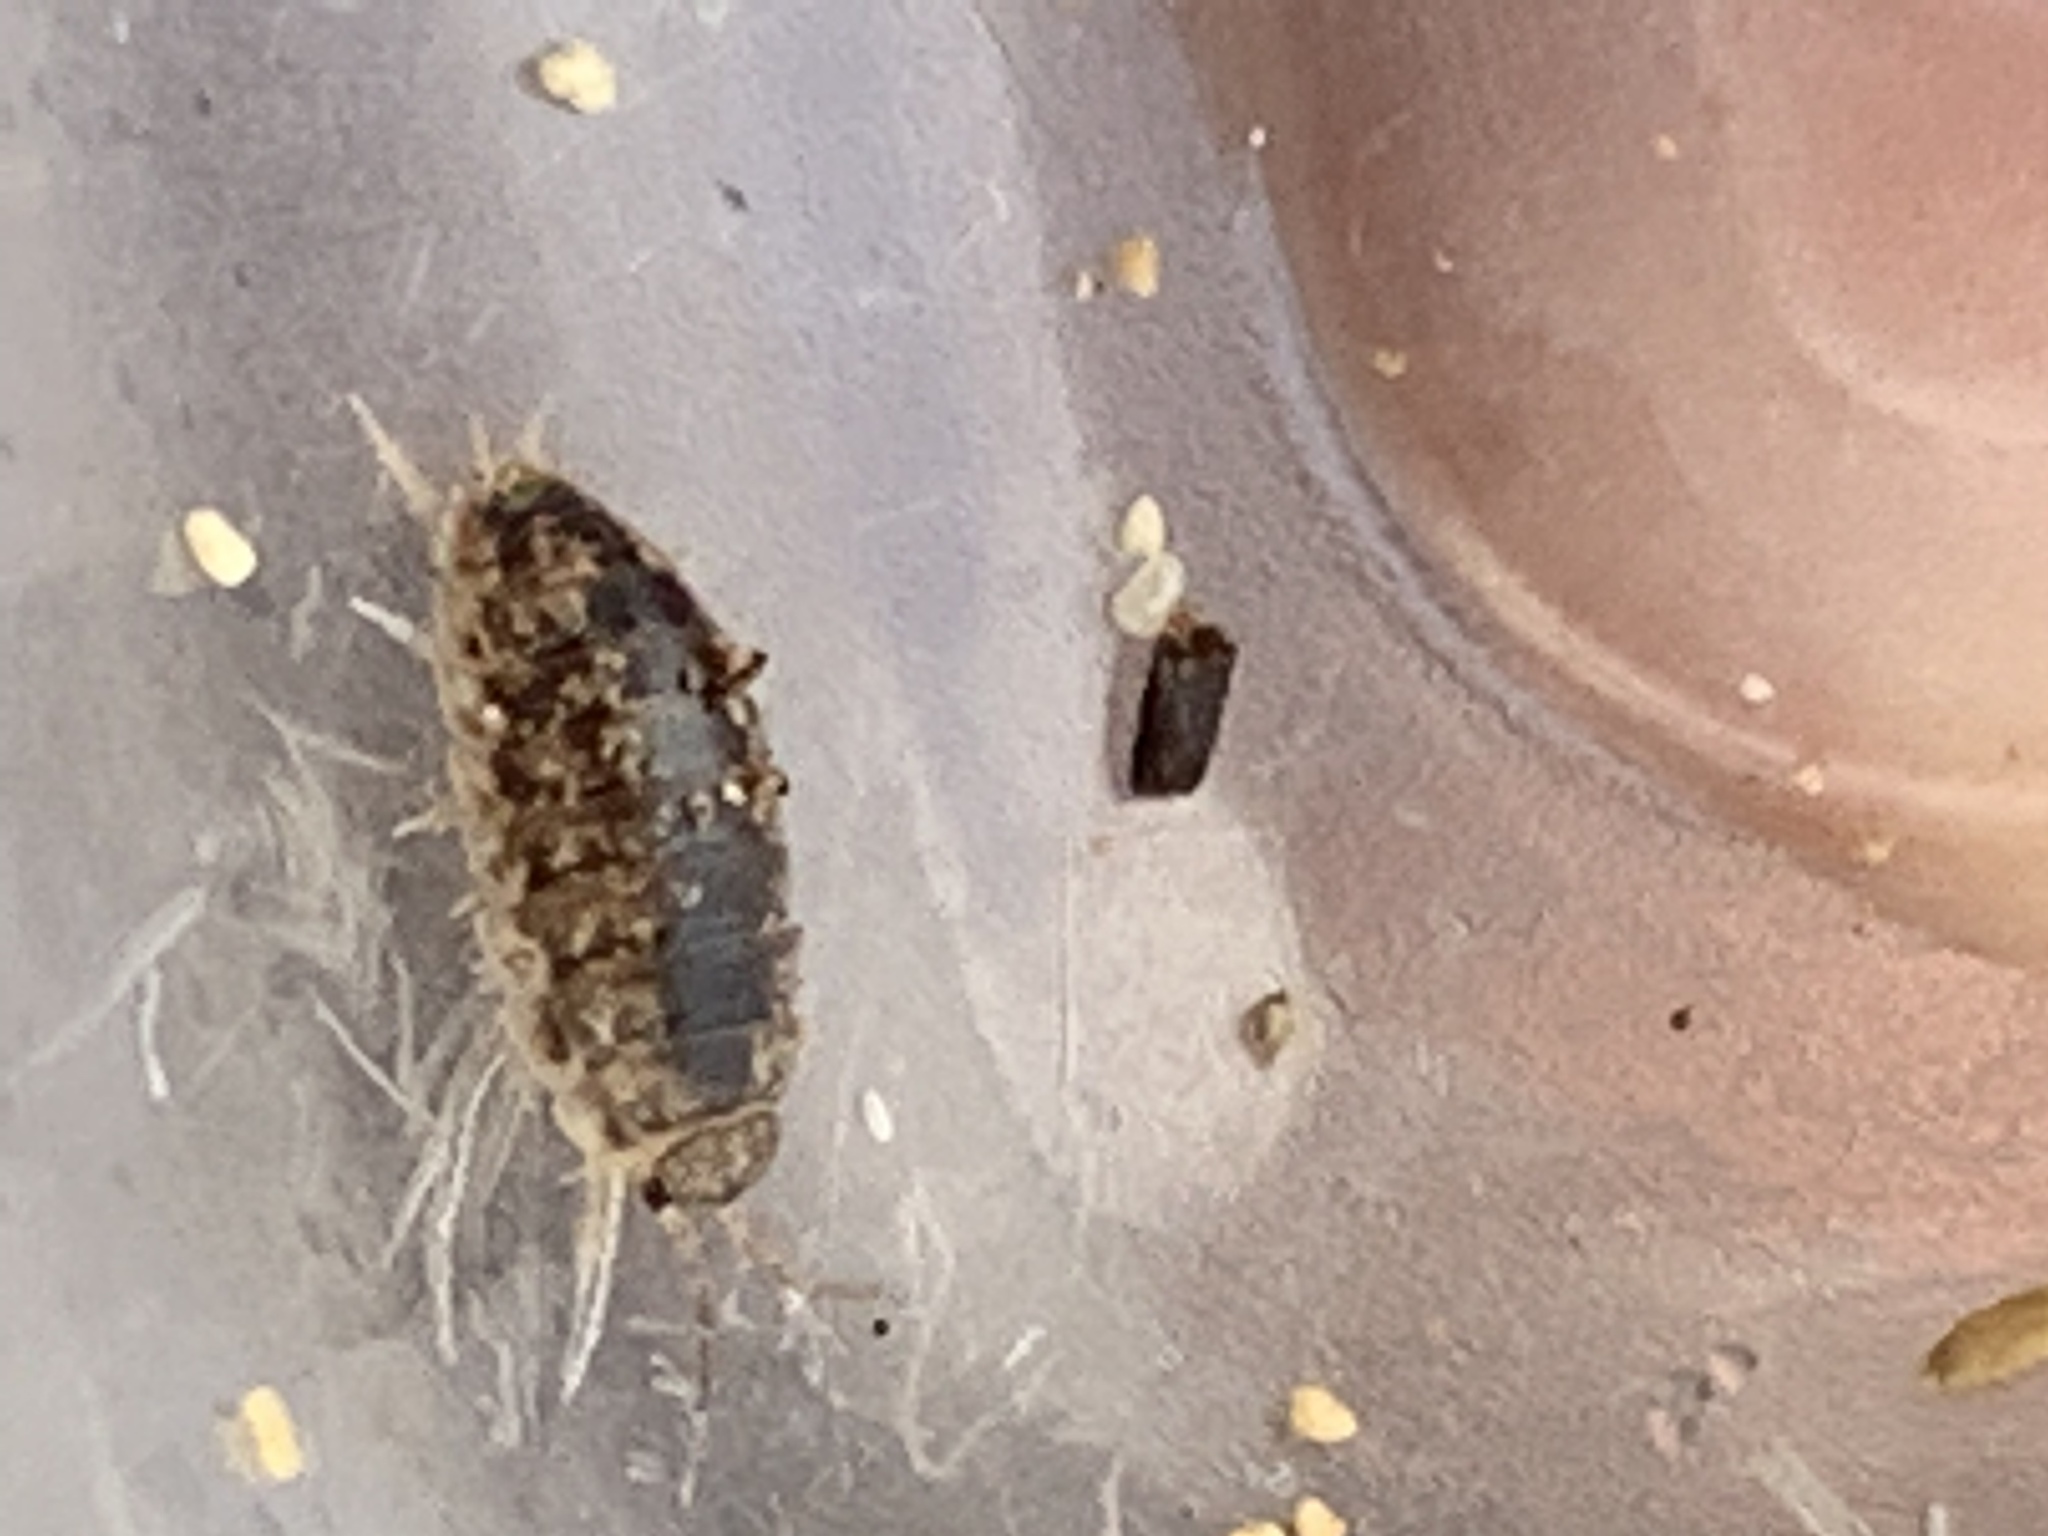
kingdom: Animalia
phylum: Arthropoda
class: Malacostraca
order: Isopoda
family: Alloniscidae
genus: Alloniscus
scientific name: Alloniscus oahuensis
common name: Pillbug
